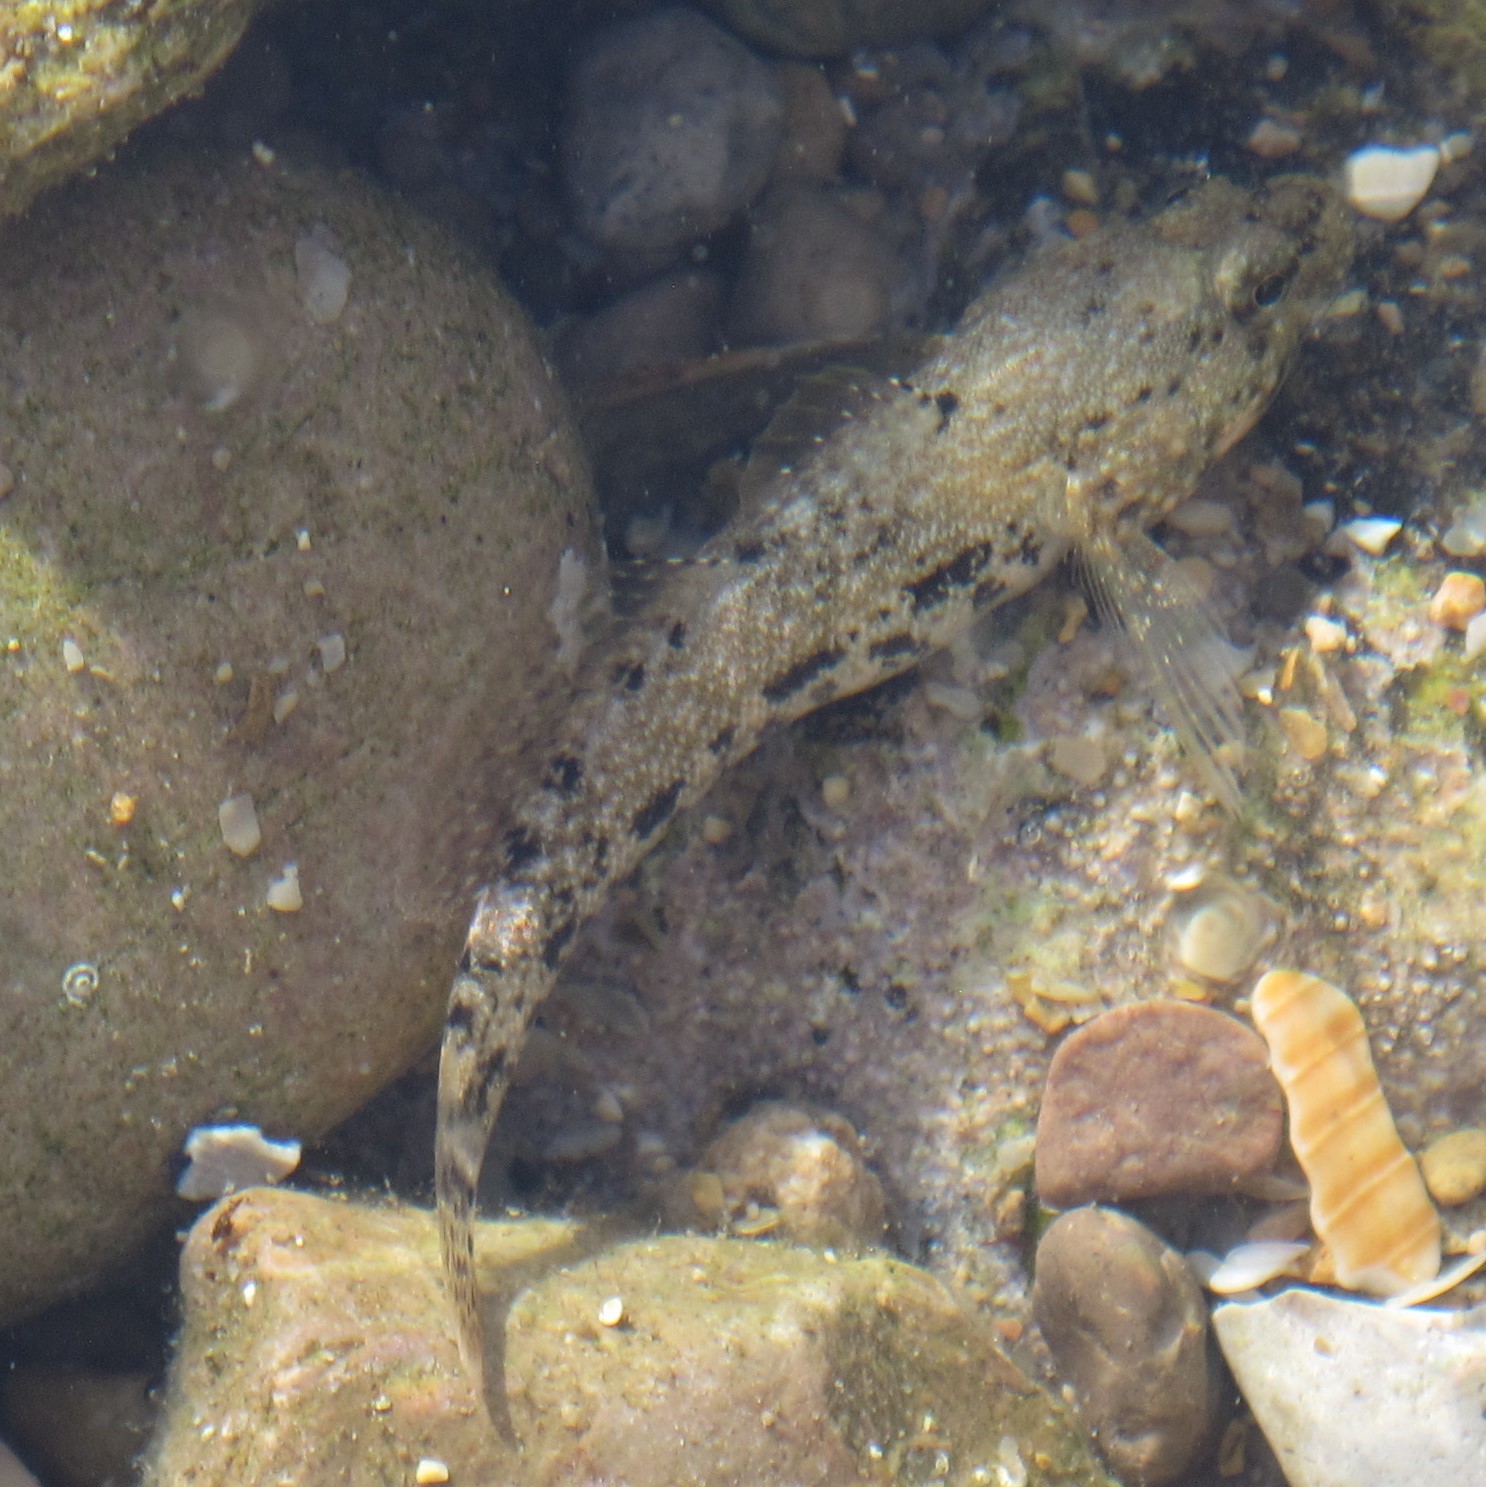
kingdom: Animalia
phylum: Chordata
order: Perciformes
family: Gobiidae
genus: Gobius
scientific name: Gobius cobitis
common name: Giant goby
